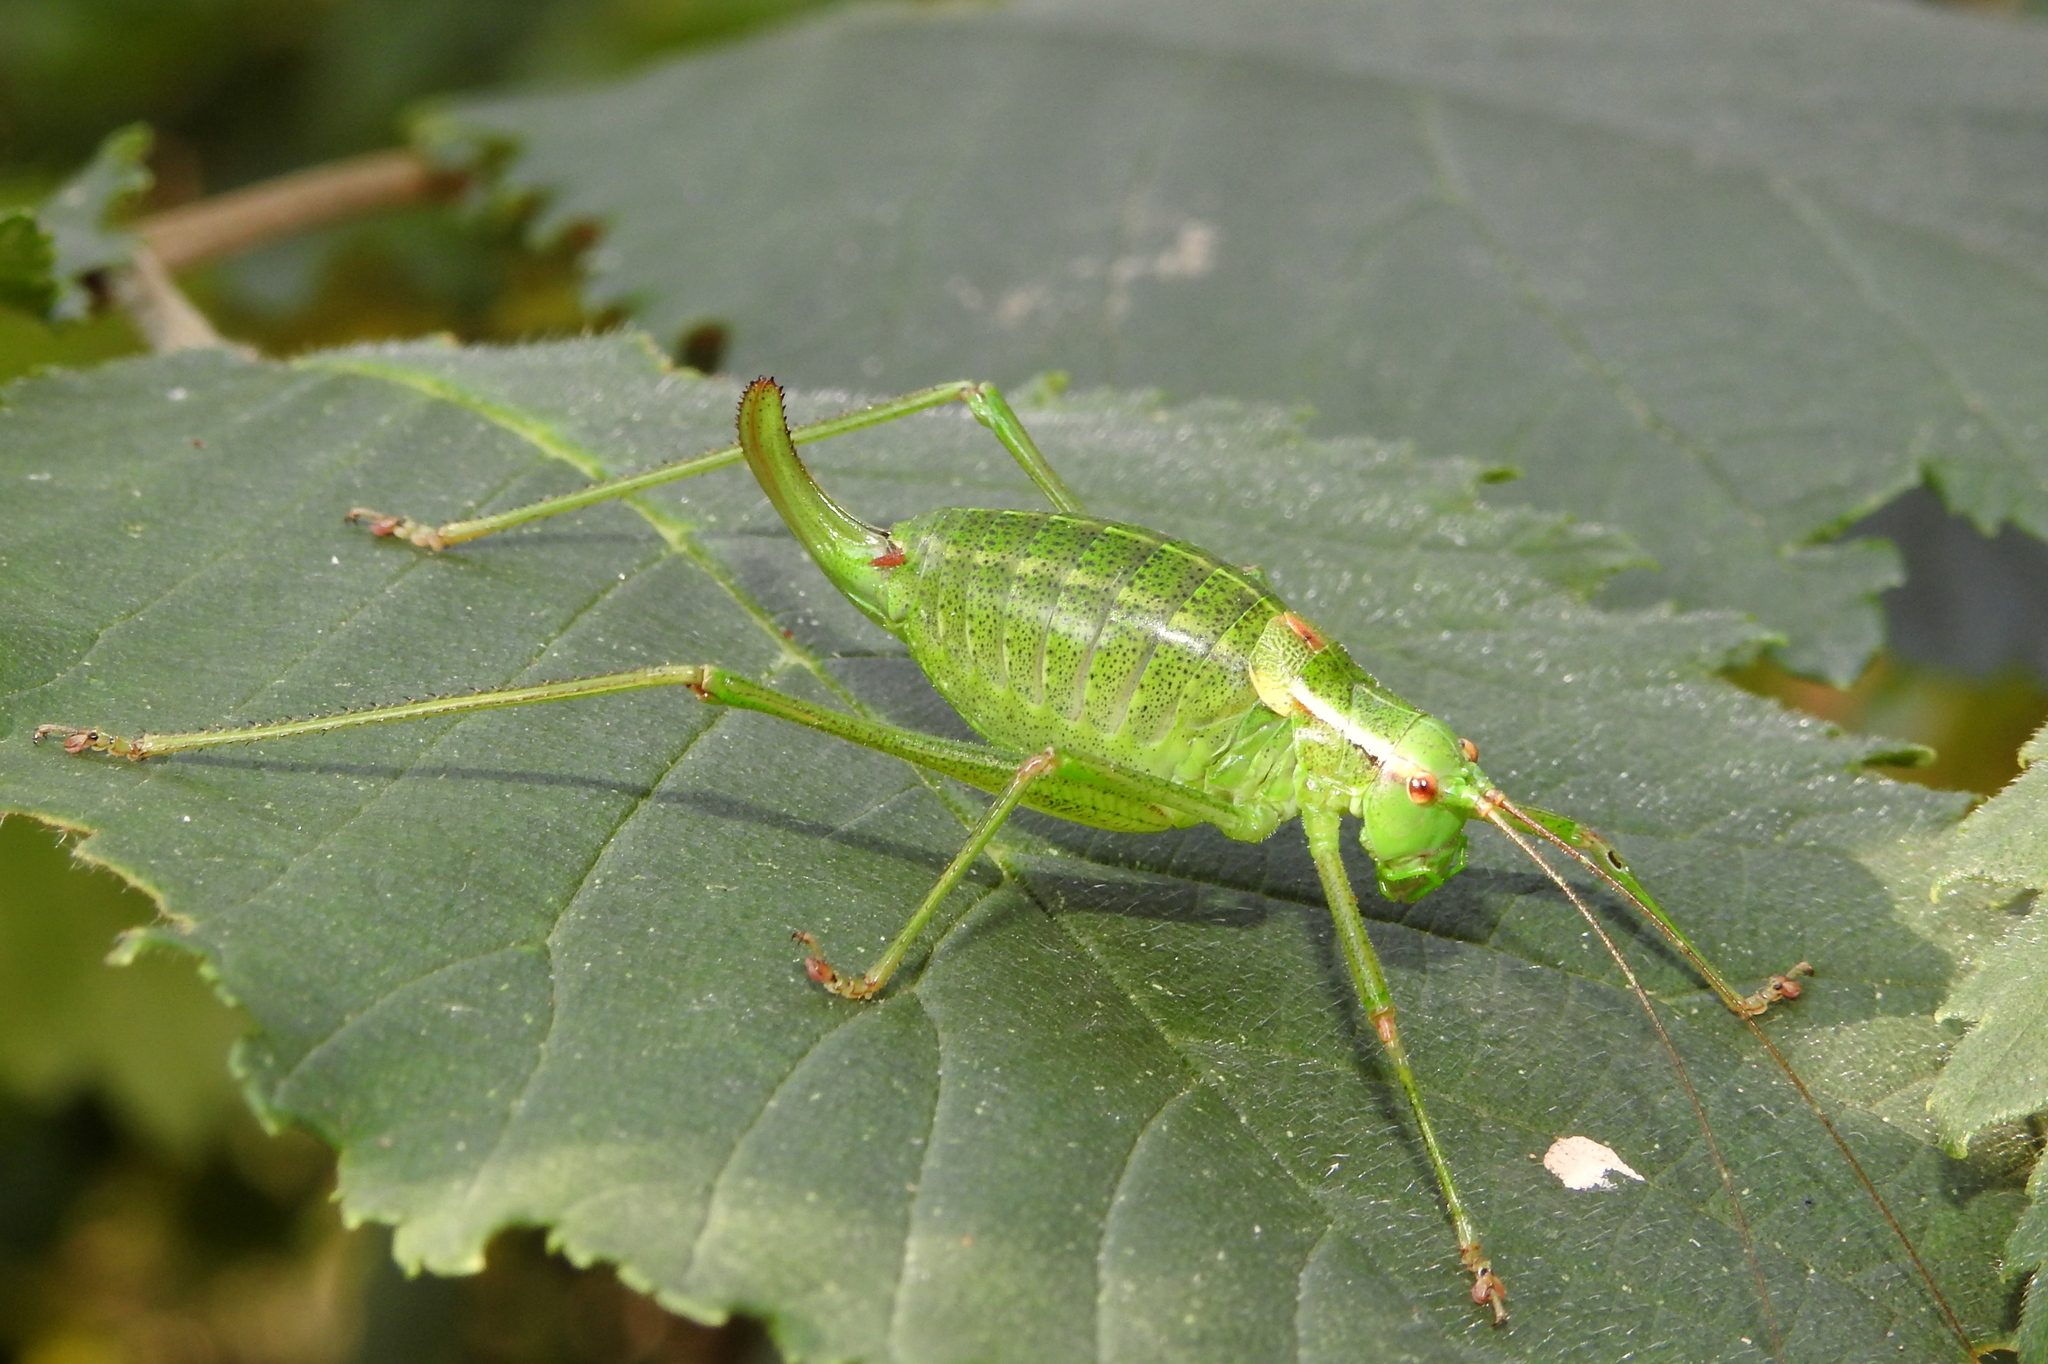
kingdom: Animalia
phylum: Arthropoda
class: Insecta
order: Orthoptera
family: Tettigoniidae
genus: Barbitistes
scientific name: Barbitistes constrictus
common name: Eastern saw-tailed bush cricket
